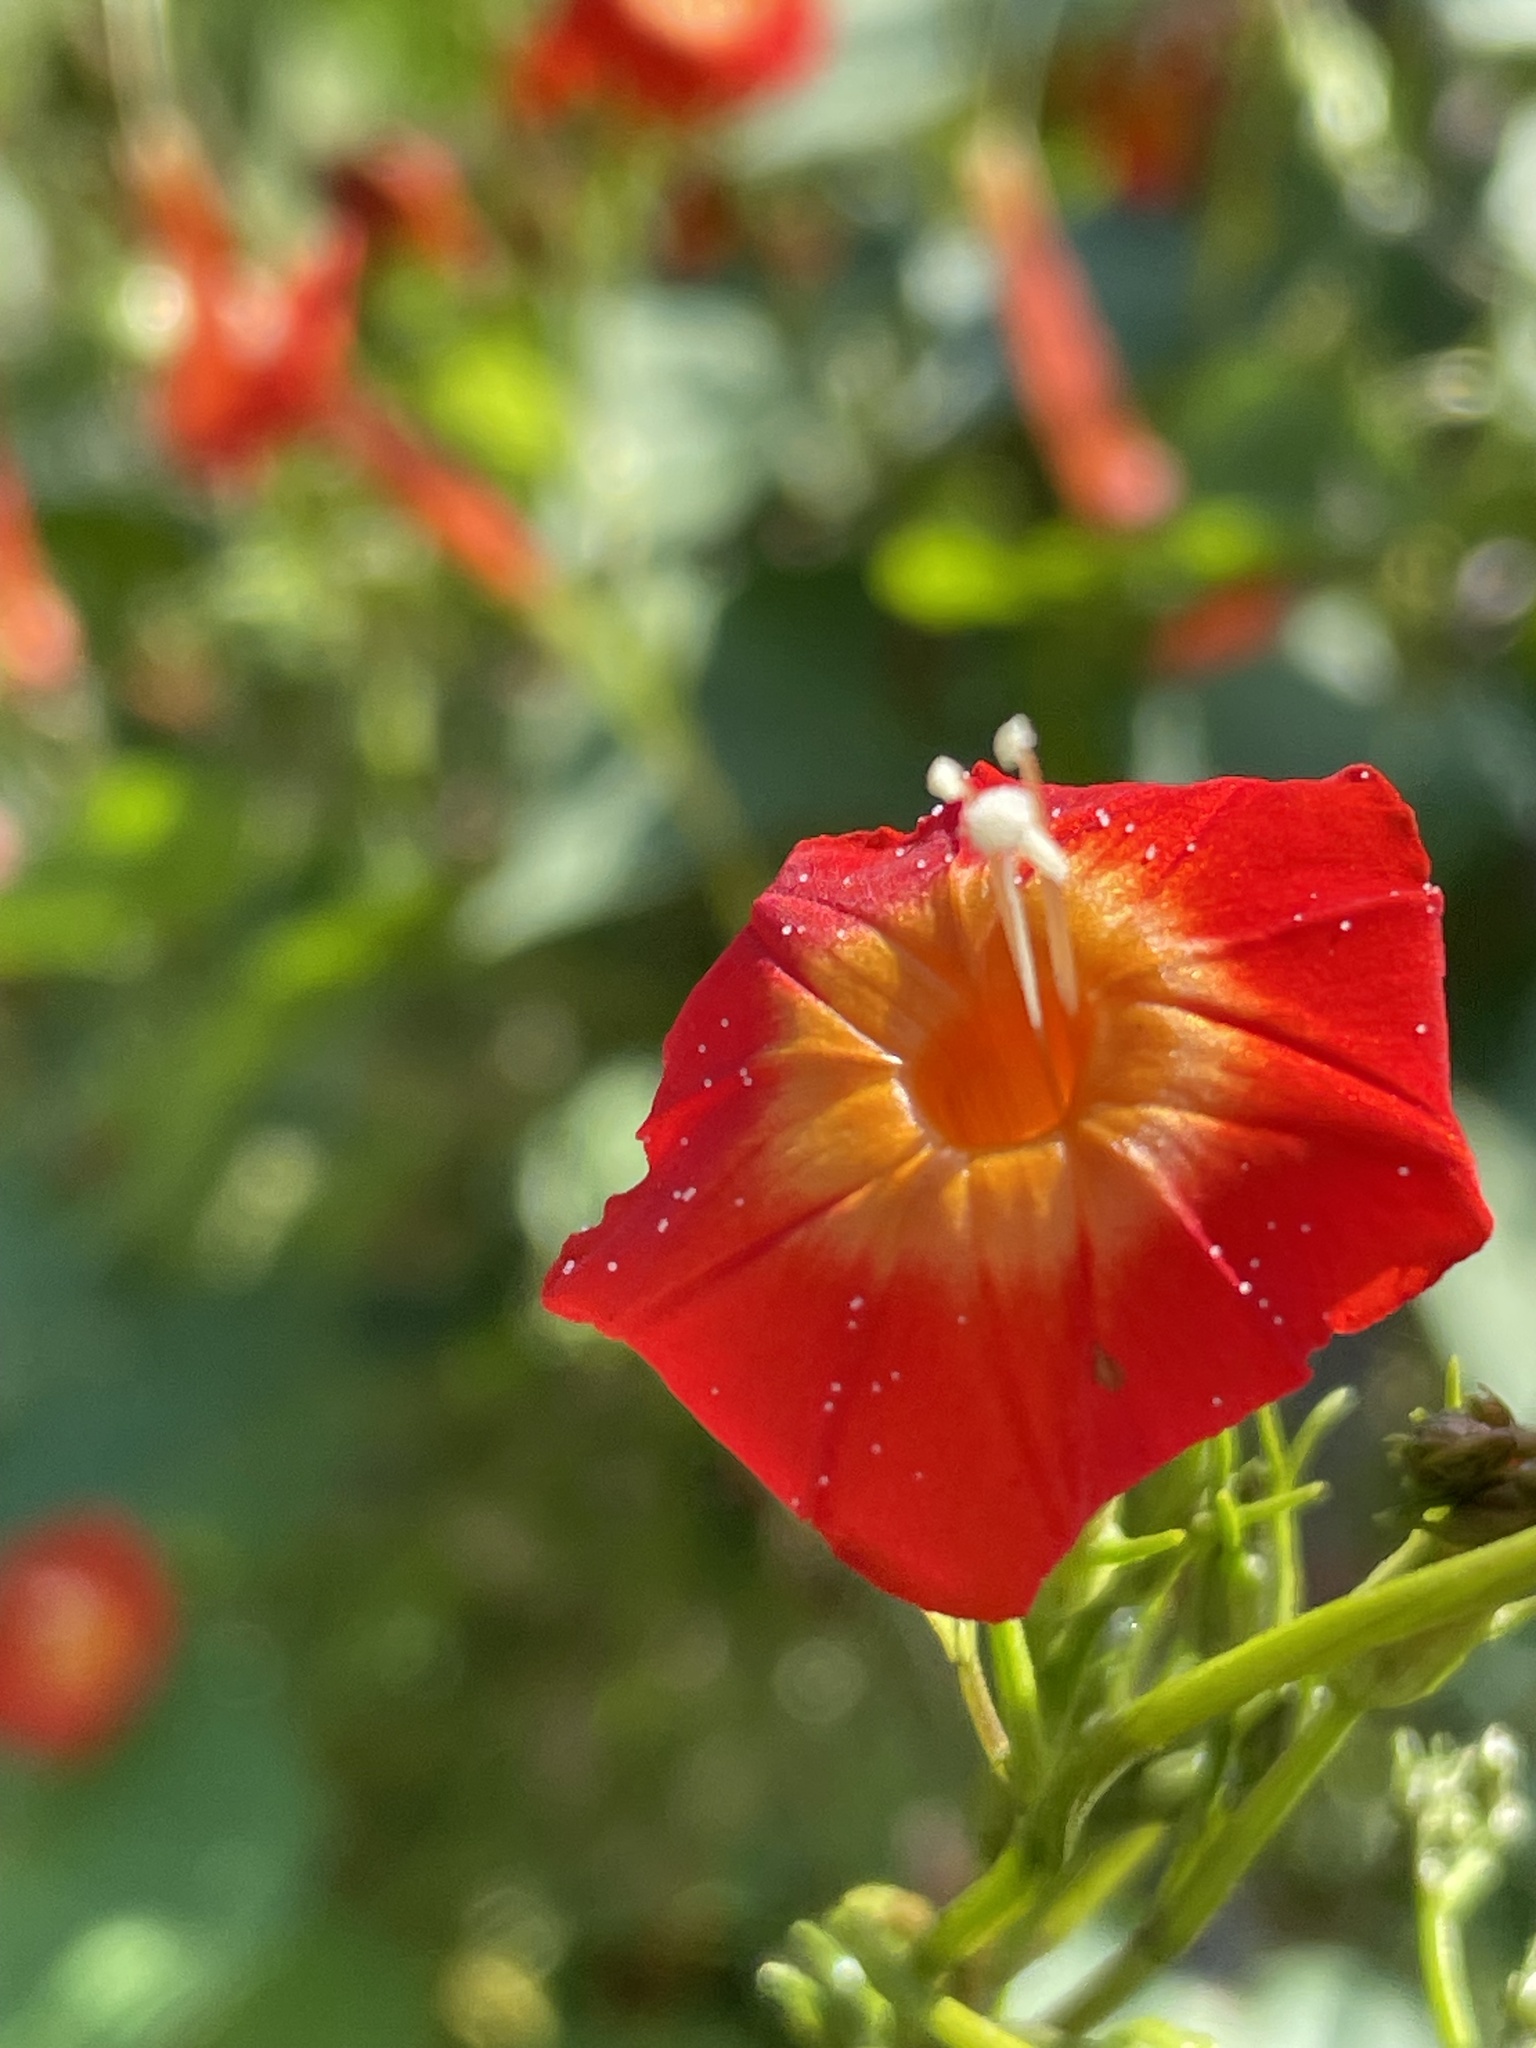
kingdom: Plantae
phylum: Tracheophyta
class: Magnoliopsida
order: Solanales
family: Convolvulaceae
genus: Ipomoea
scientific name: Ipomoea coccinea
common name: Red morning-glory
